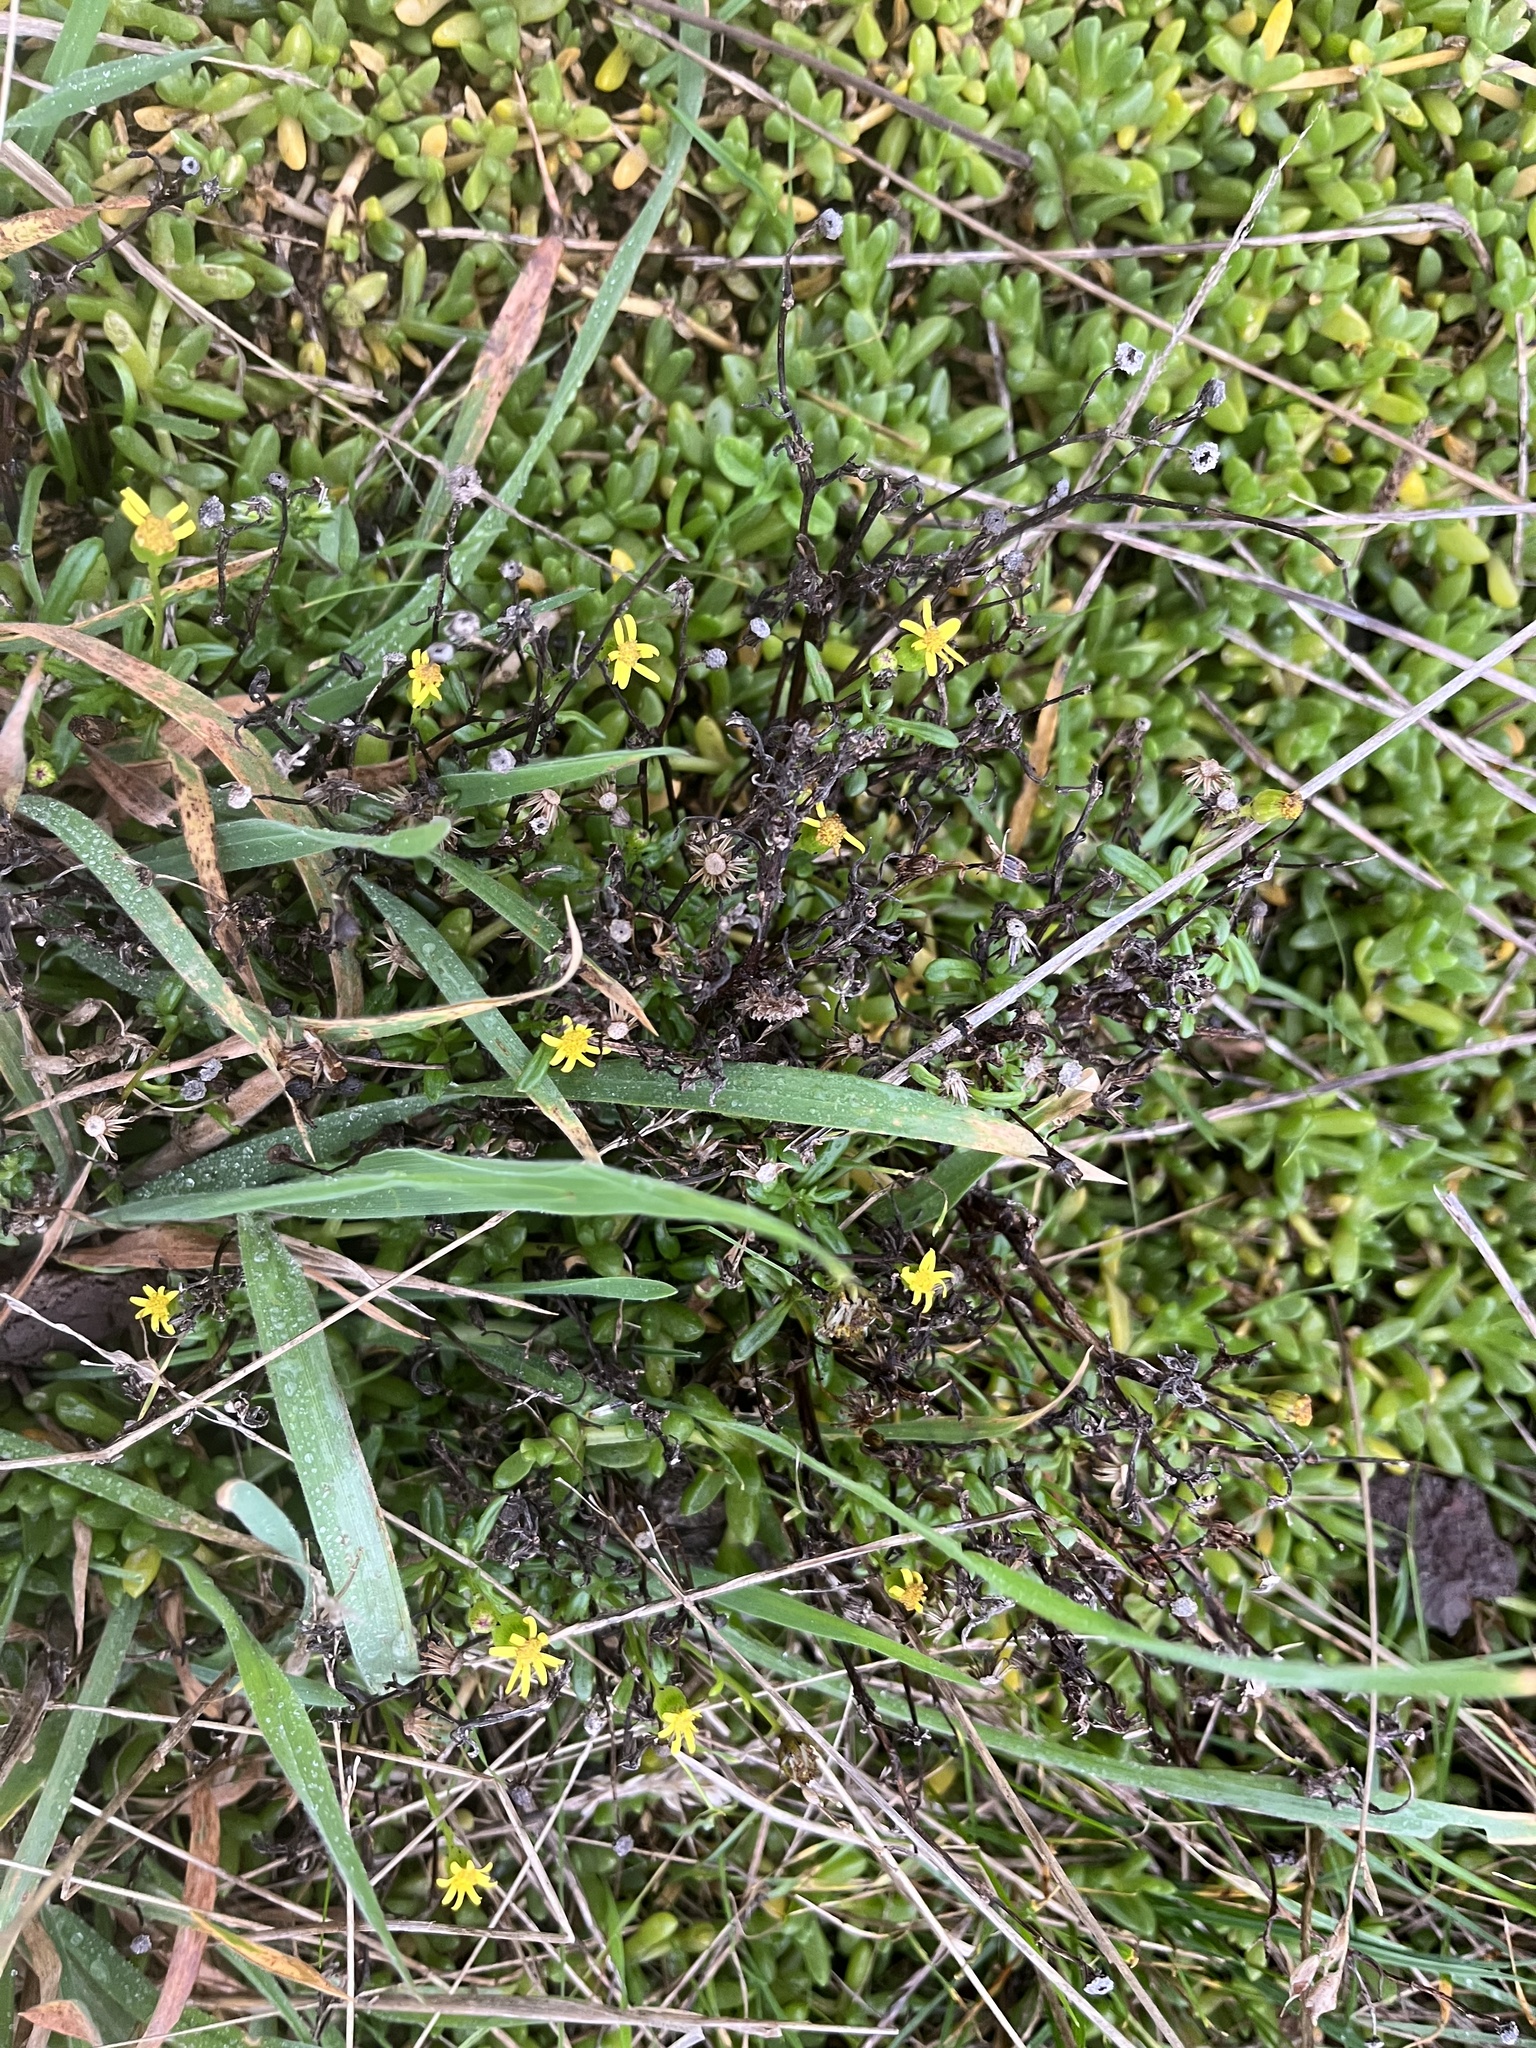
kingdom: Plantae
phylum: Tracheophyta
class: Magnoliopsida
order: Asterales
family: Asteraceae
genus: Senecio
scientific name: Senecio lautus
